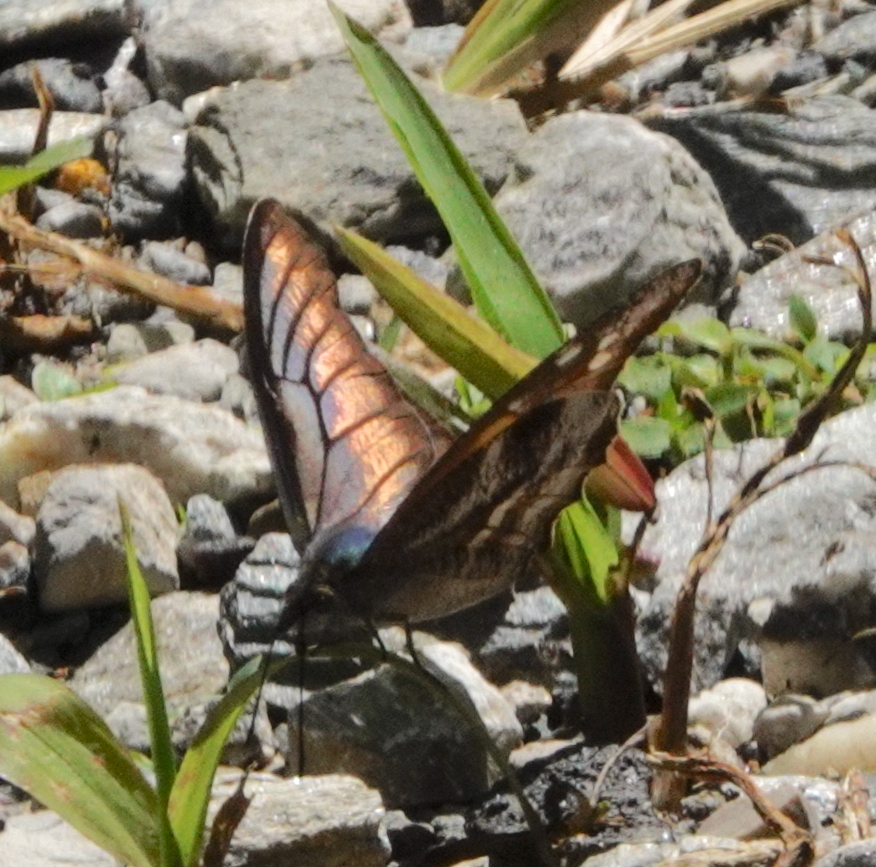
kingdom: Animalia
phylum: Arthropoda
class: Insecta
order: Lepidoptera
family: Nymphalidae
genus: Libythea
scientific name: Libythea geoffroy
